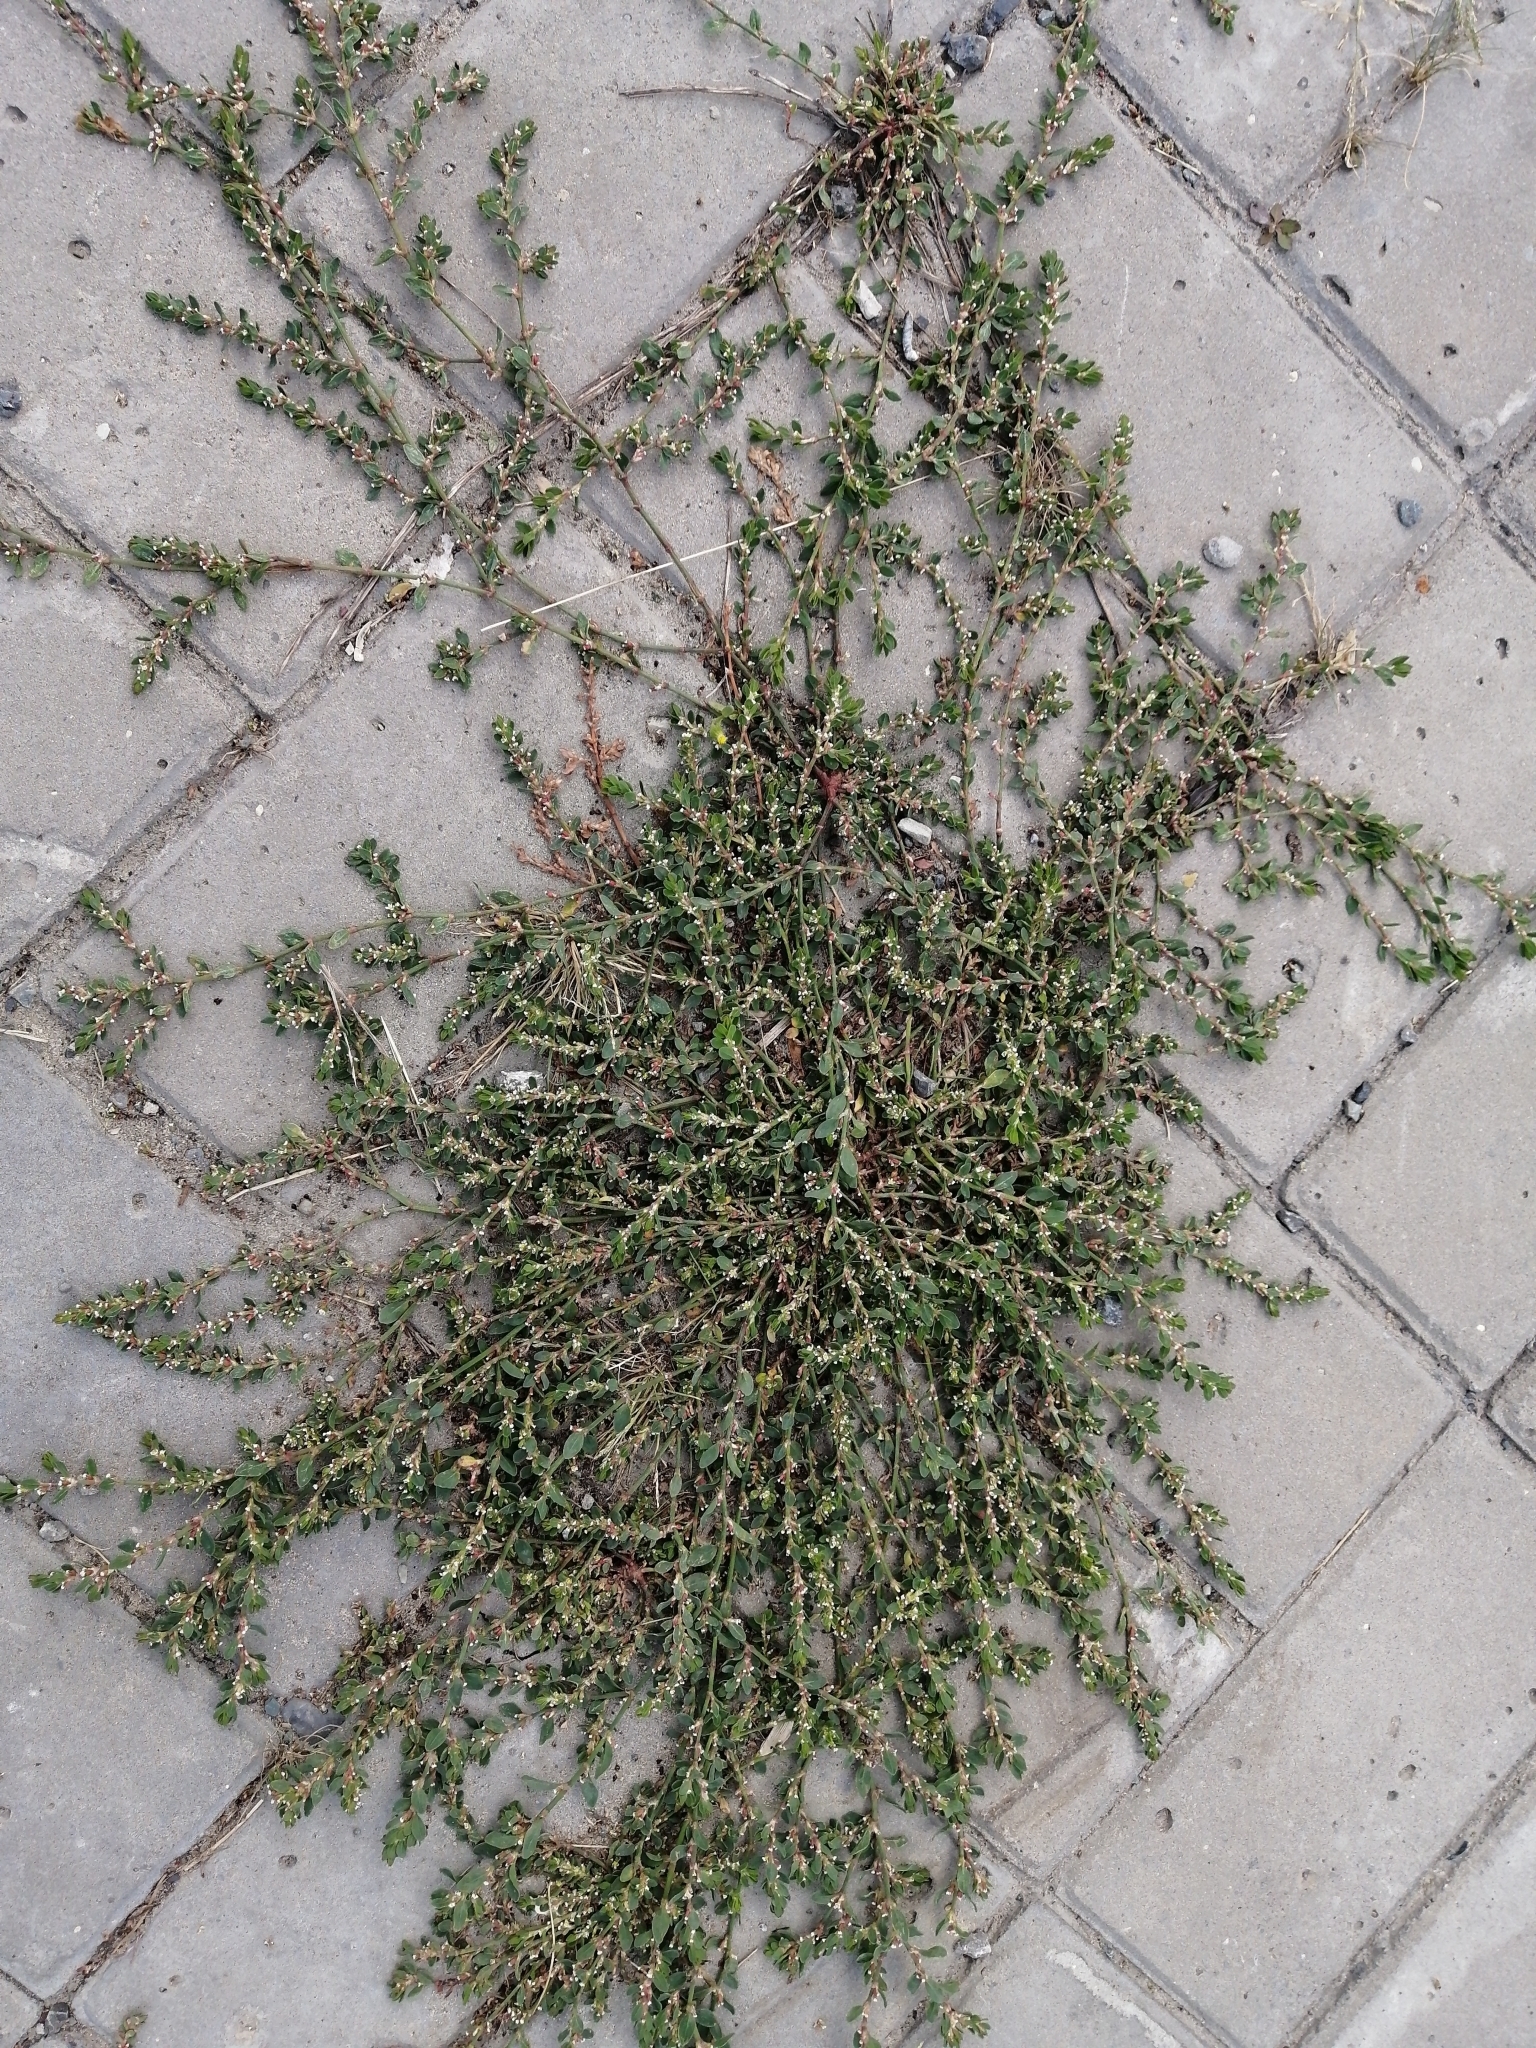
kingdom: Plantae
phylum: Tracheophyta
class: Magnoliopsida
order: Caryophyllales
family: Polygonaceae
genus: Polygonum
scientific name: Polygonum
